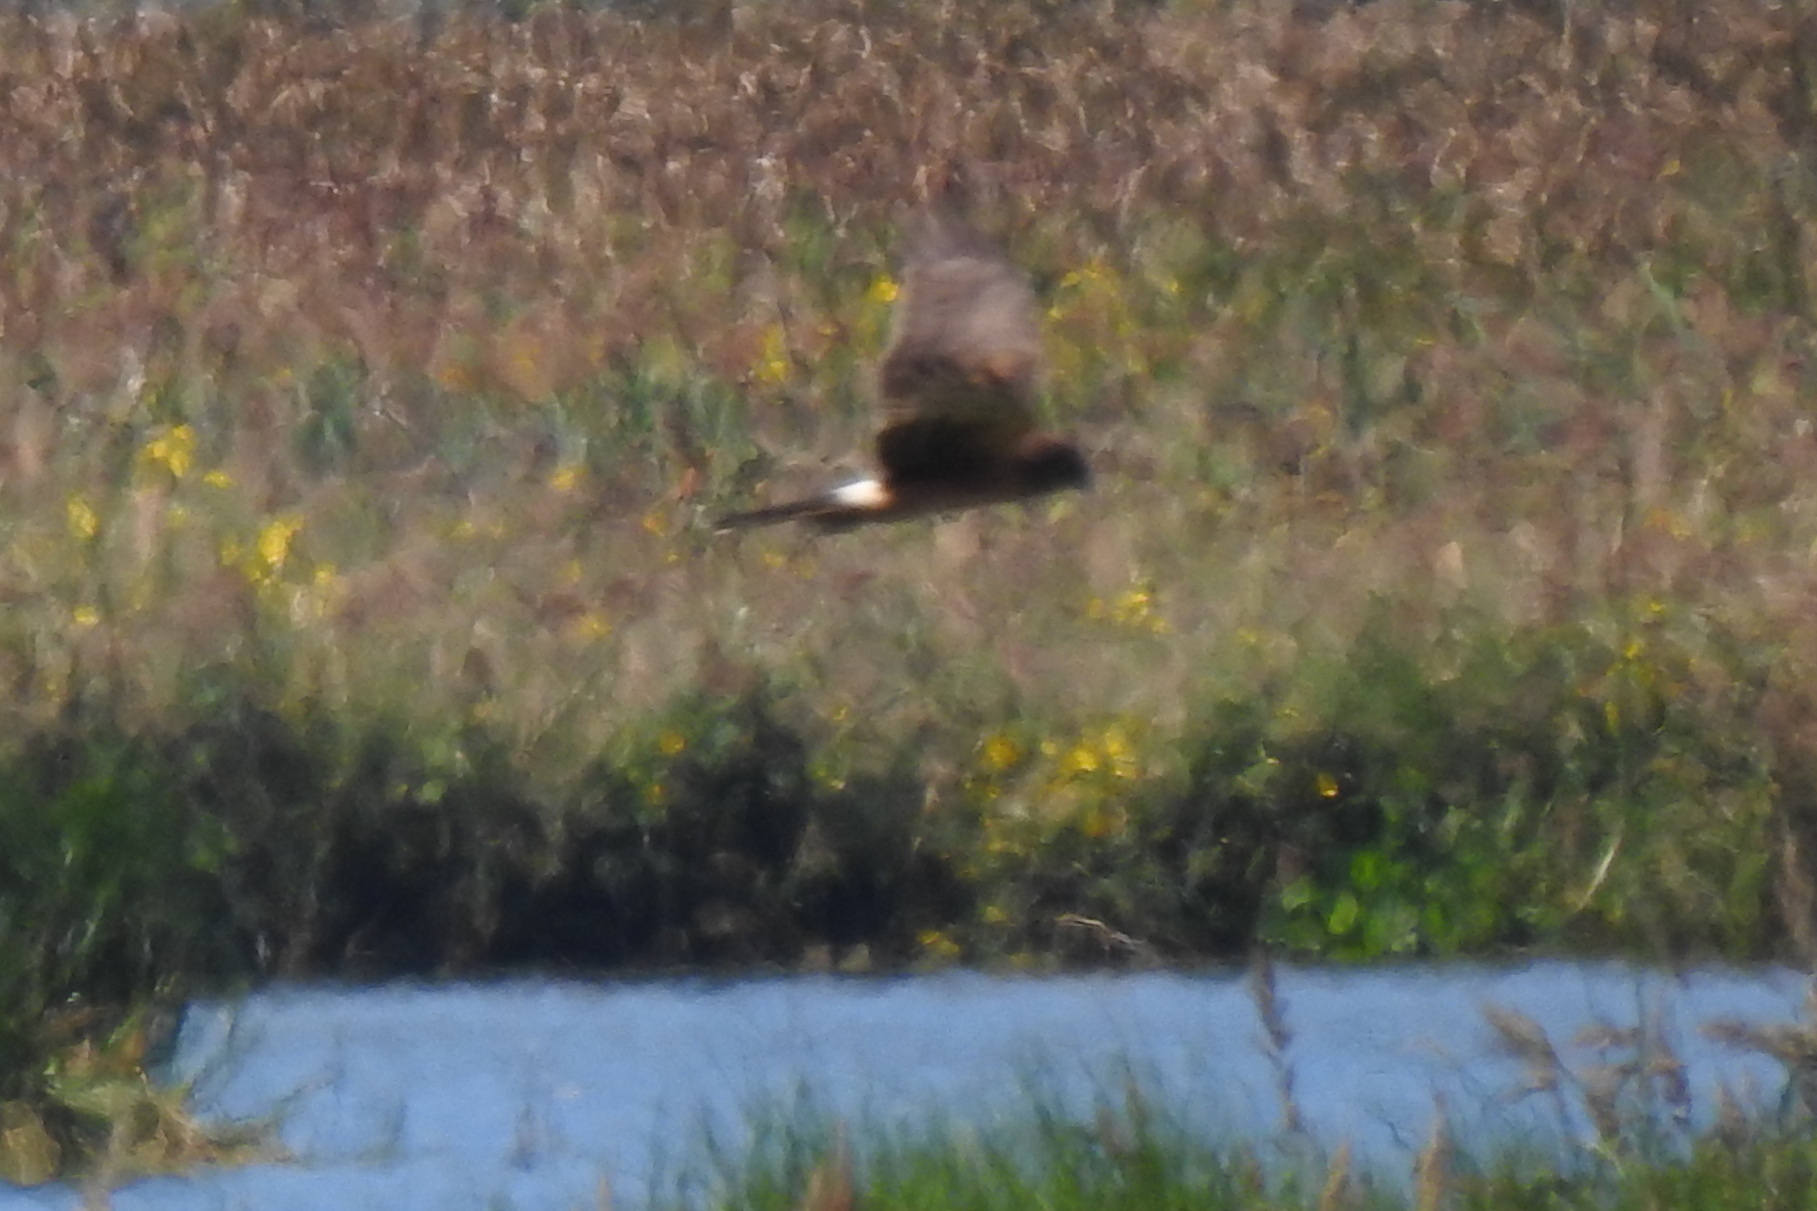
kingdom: Animalia
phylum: Chordata
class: Aves
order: Accipitriformes
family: Accipitridae
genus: Circus
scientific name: Circus cyaneus
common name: Hen harrier
